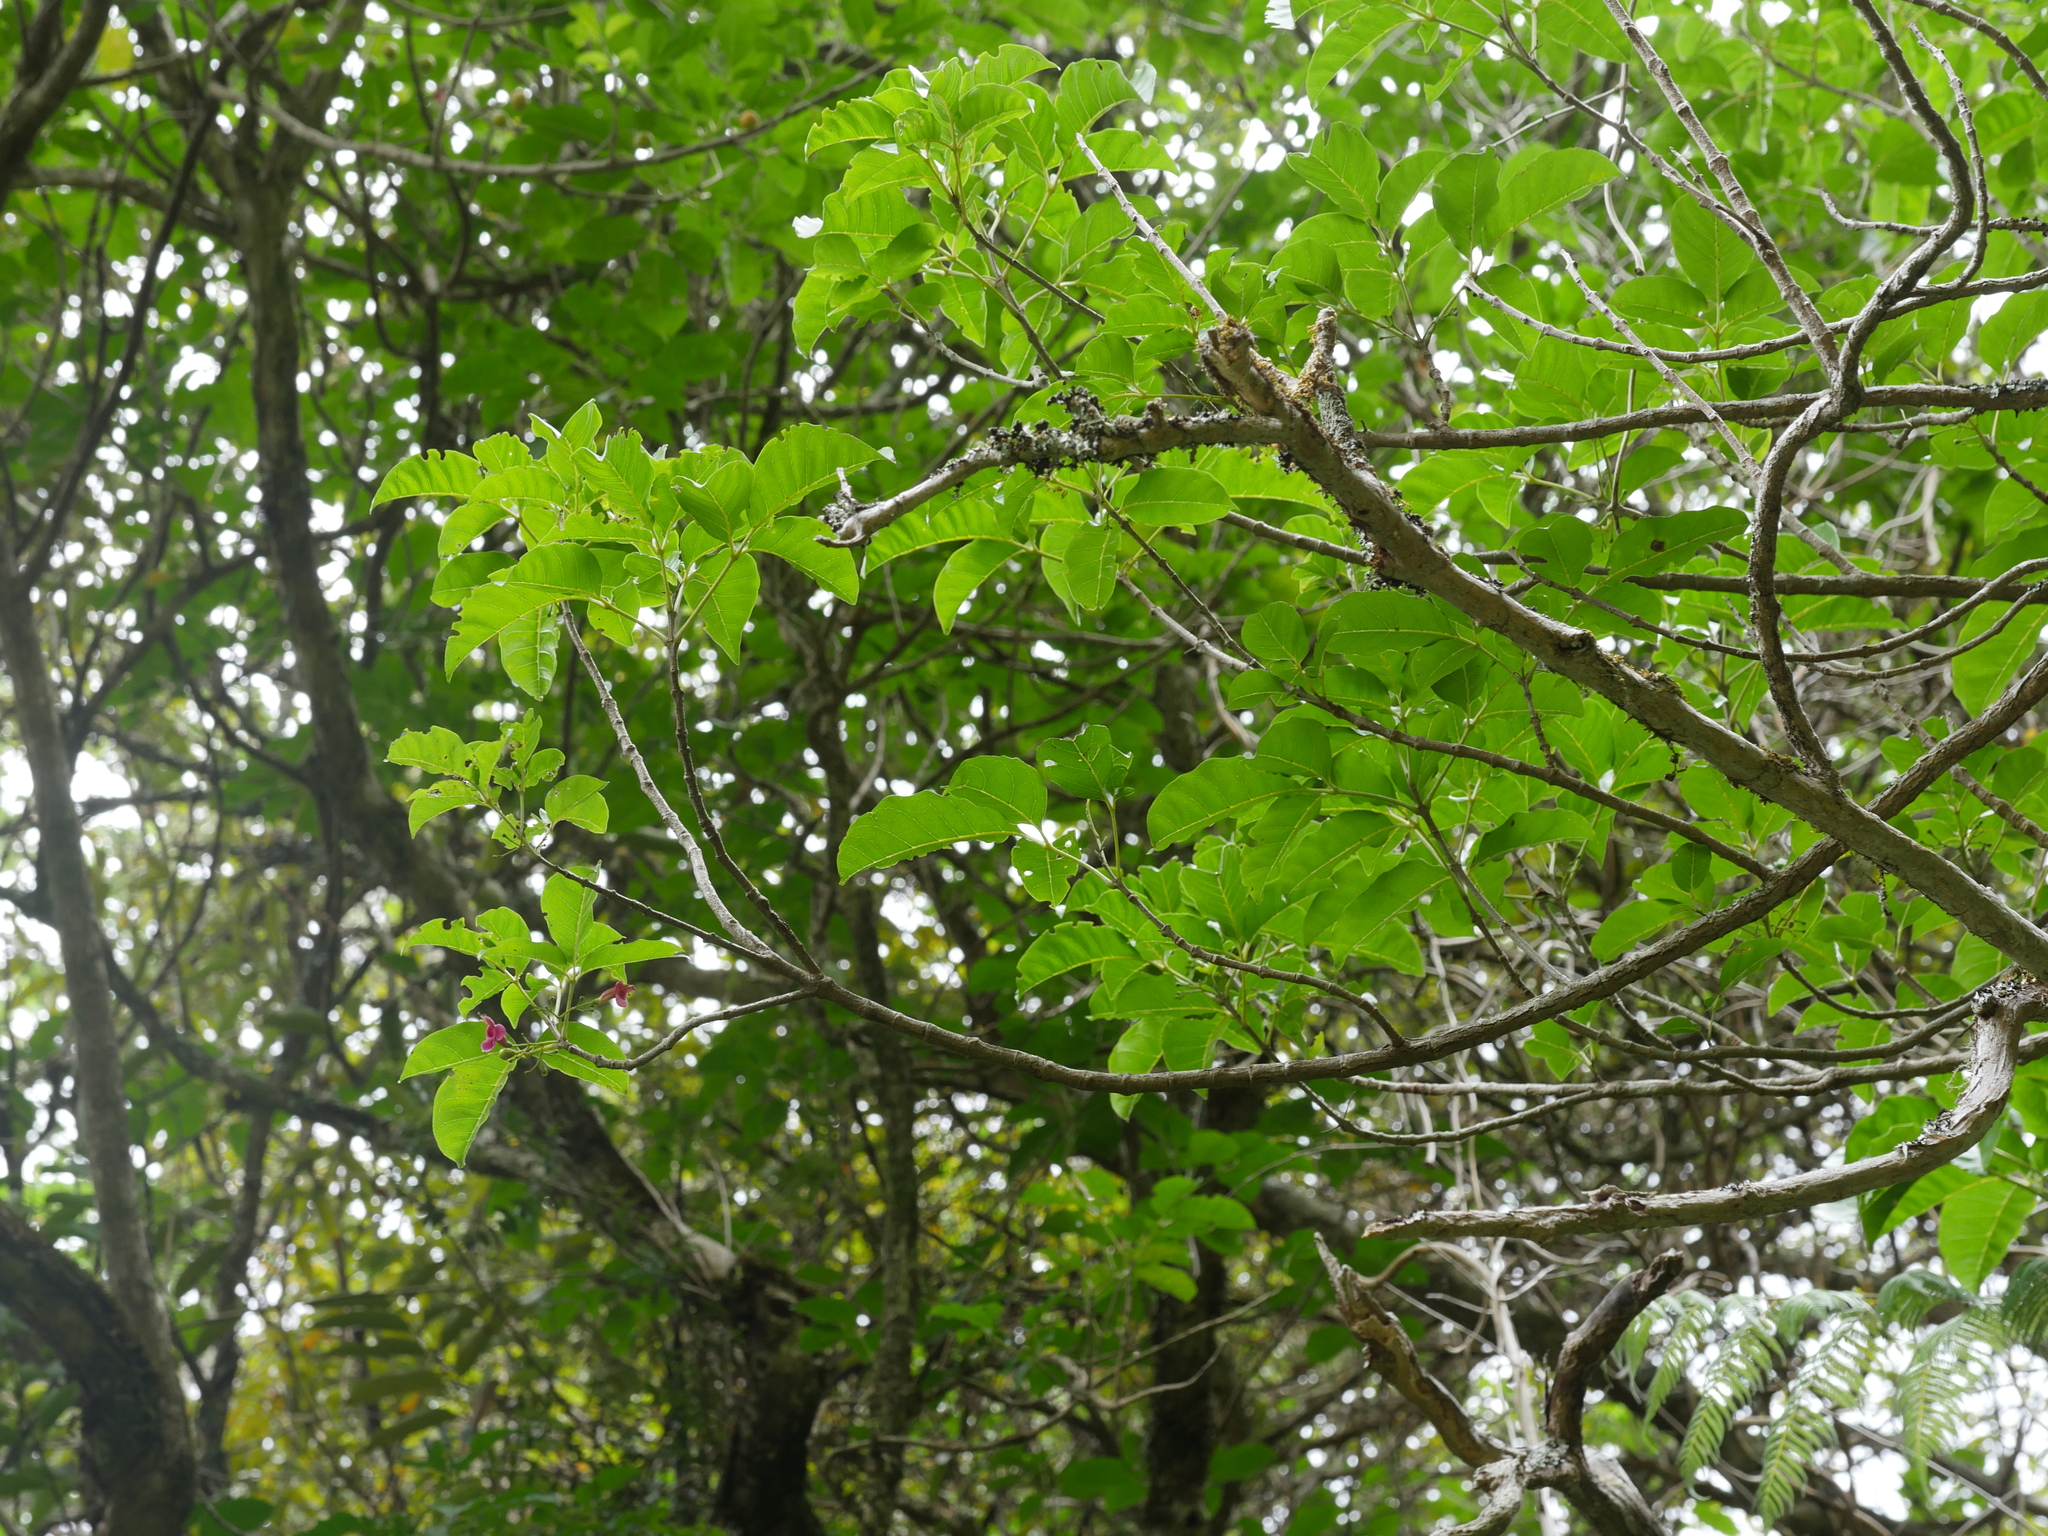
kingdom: Plantae
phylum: Tracheophyta
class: Magnoliopsida
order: Lamiales
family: Lamiaceae
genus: Vitex
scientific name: Vitex lucens
